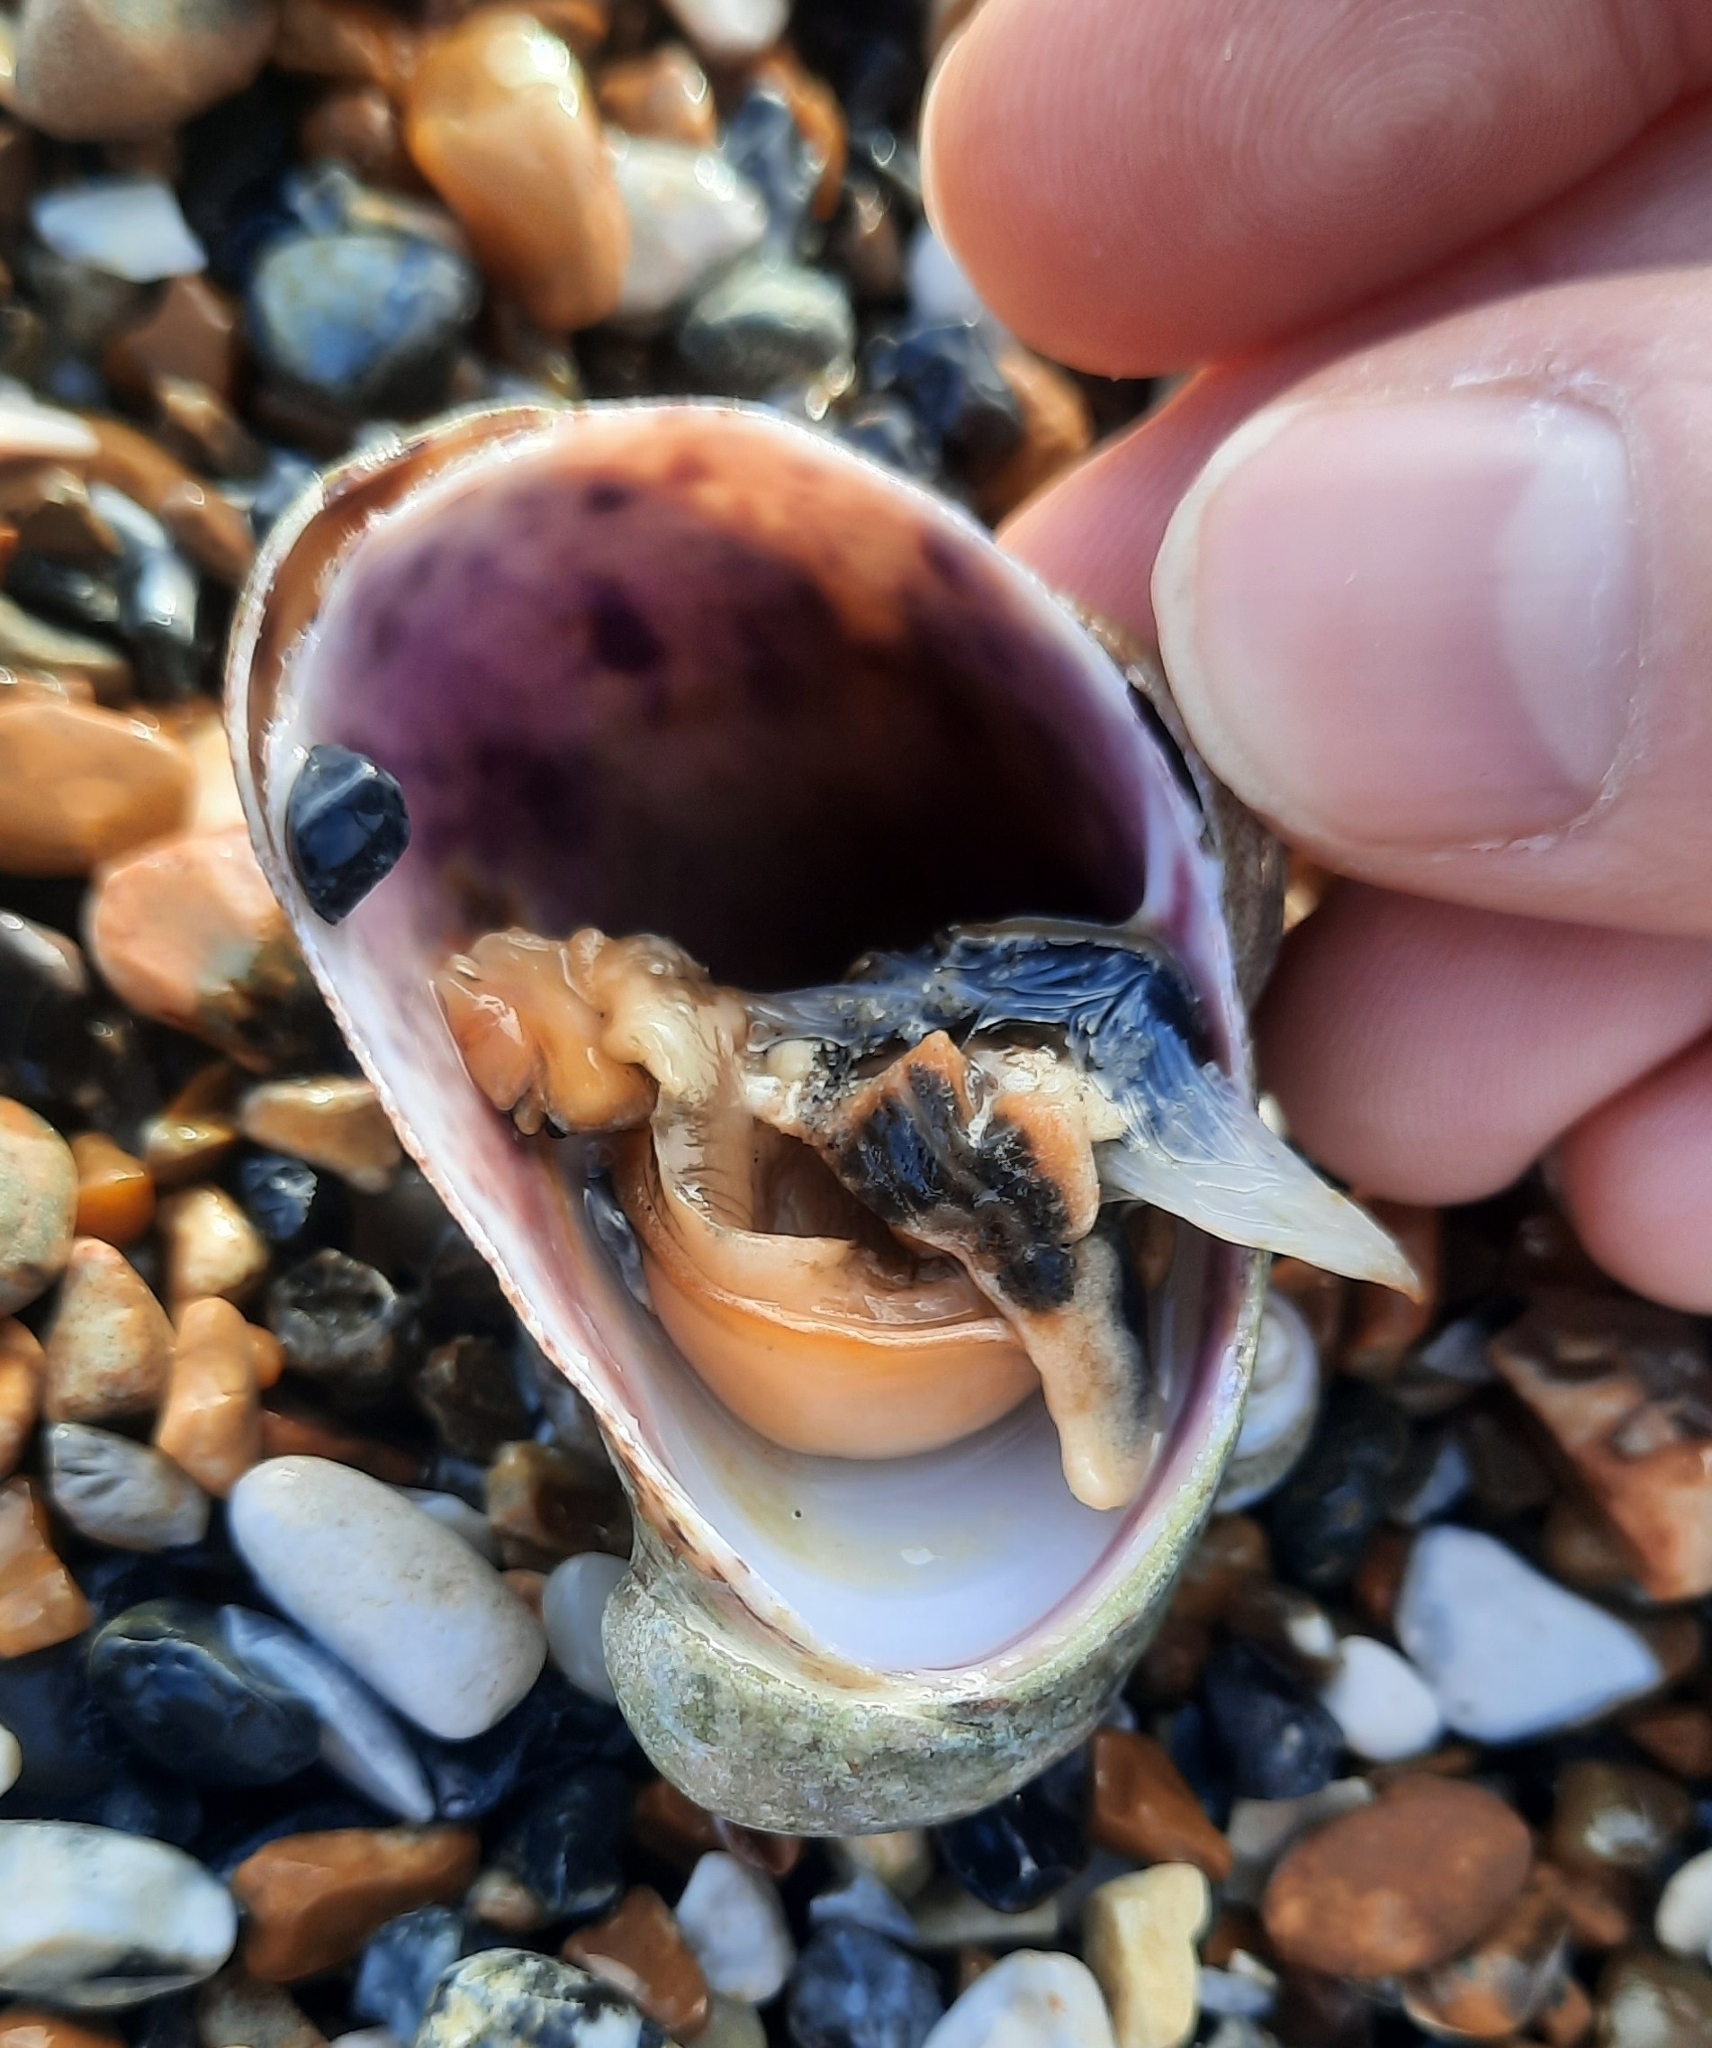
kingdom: Animalia
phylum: Mollusca
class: Gastropoda
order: Littorinimorpha
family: Calyptraeidae
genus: Crepidula
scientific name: Crepidula fornicata
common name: Slipper limpet
